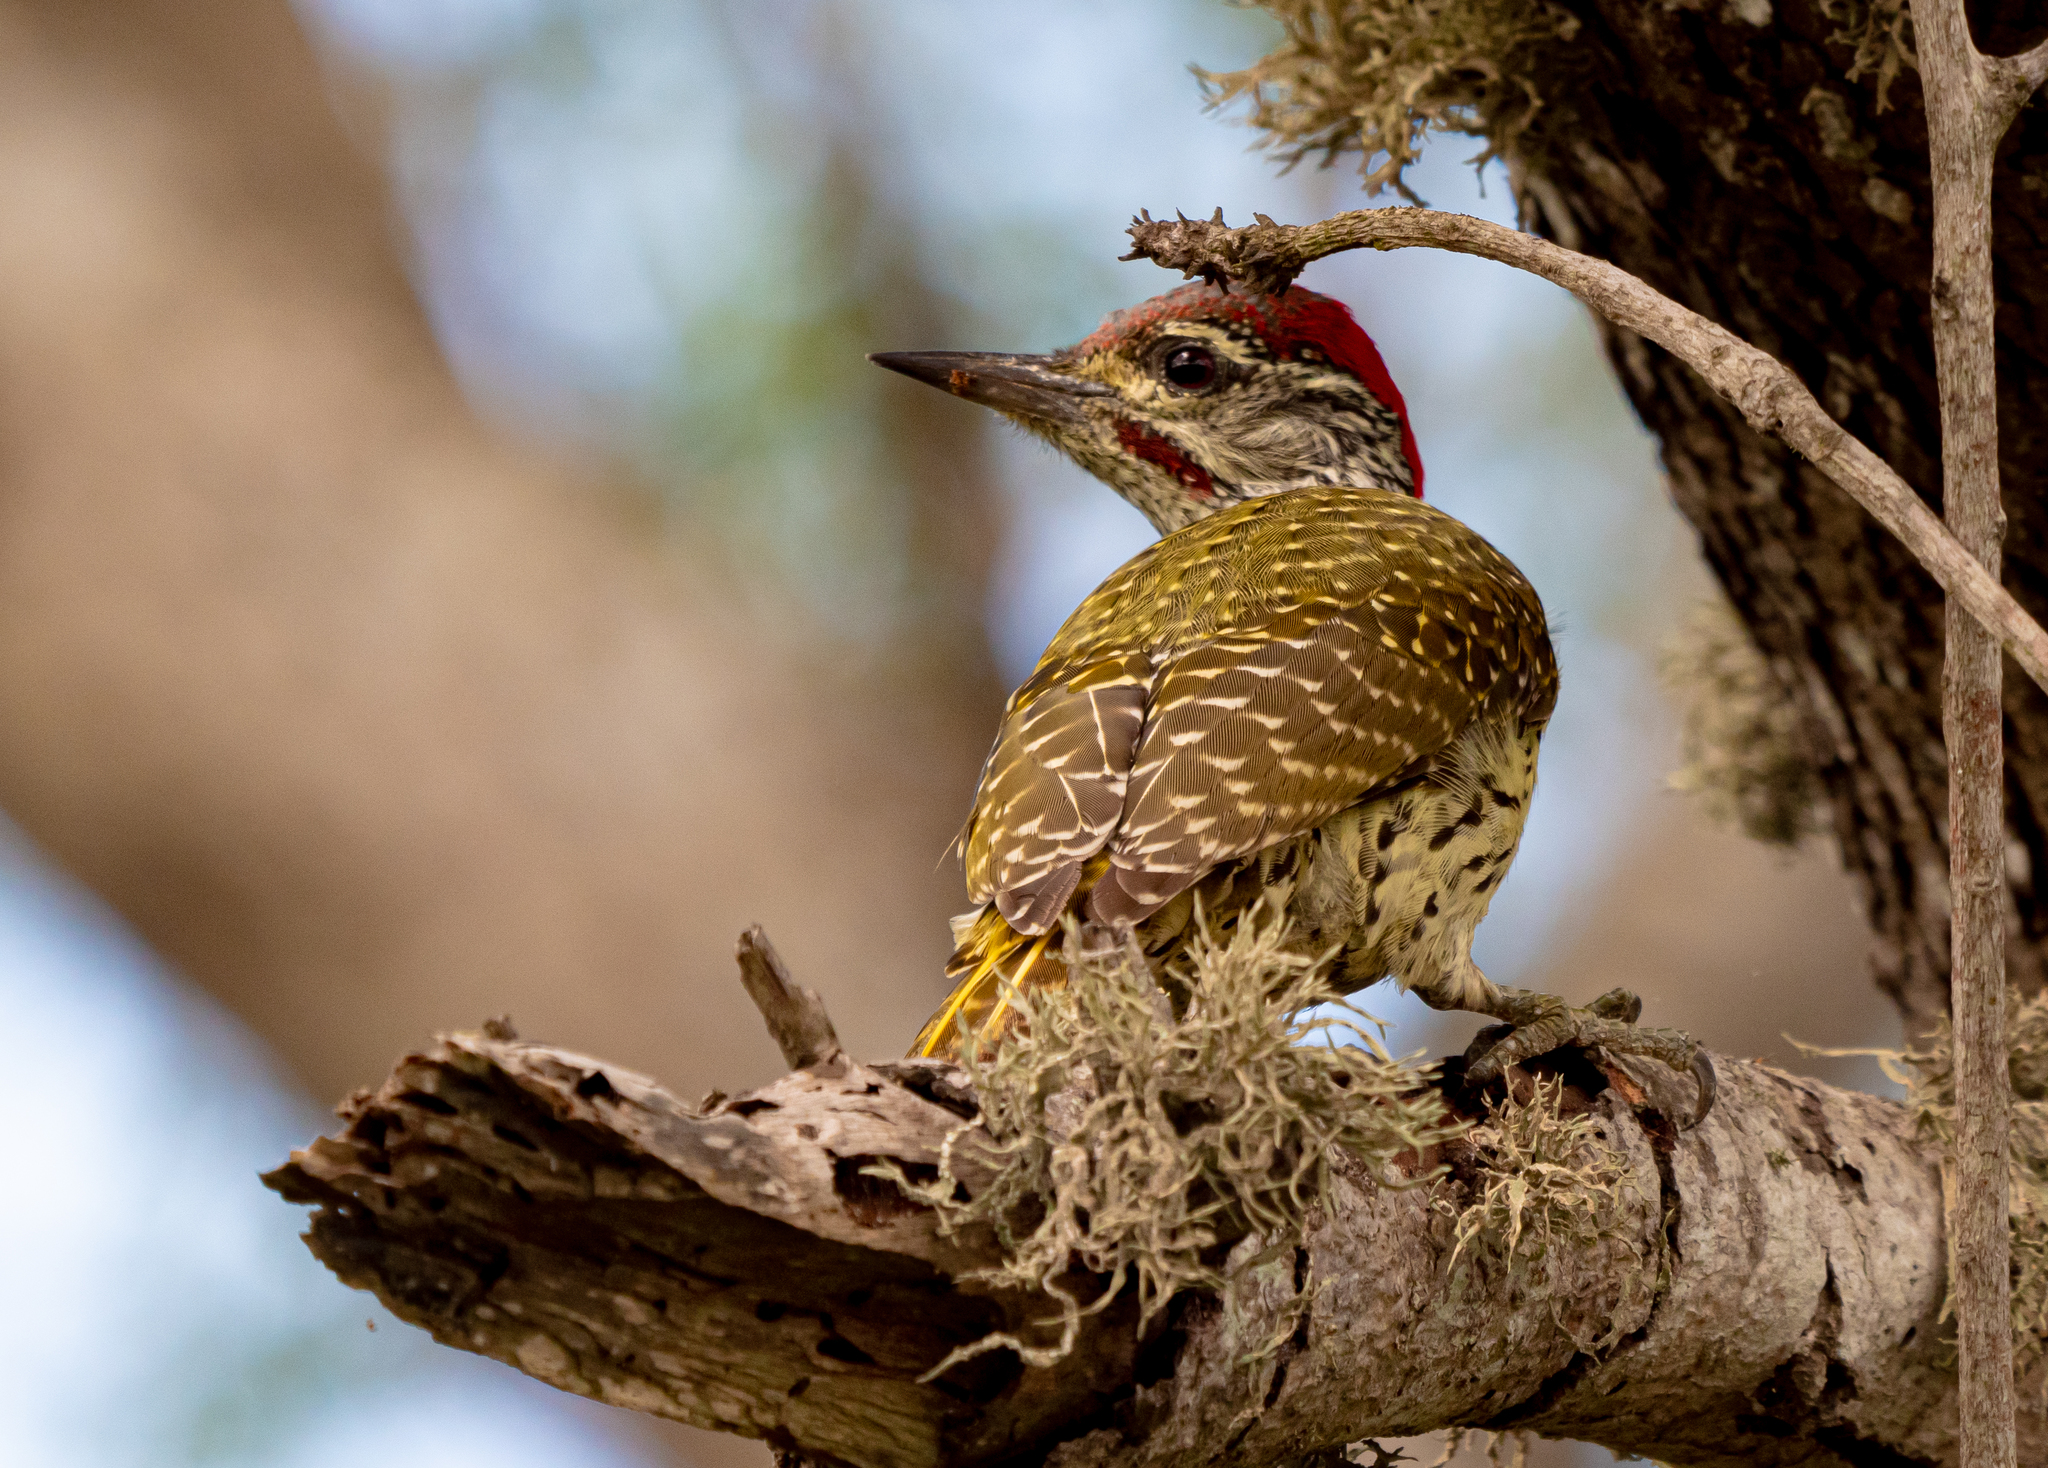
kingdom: Animalia
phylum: Chordata
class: Aves
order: Piciformes
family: Picidae
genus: Campethera
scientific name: Campethera abingoni
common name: Golden-tailed woodpecker
